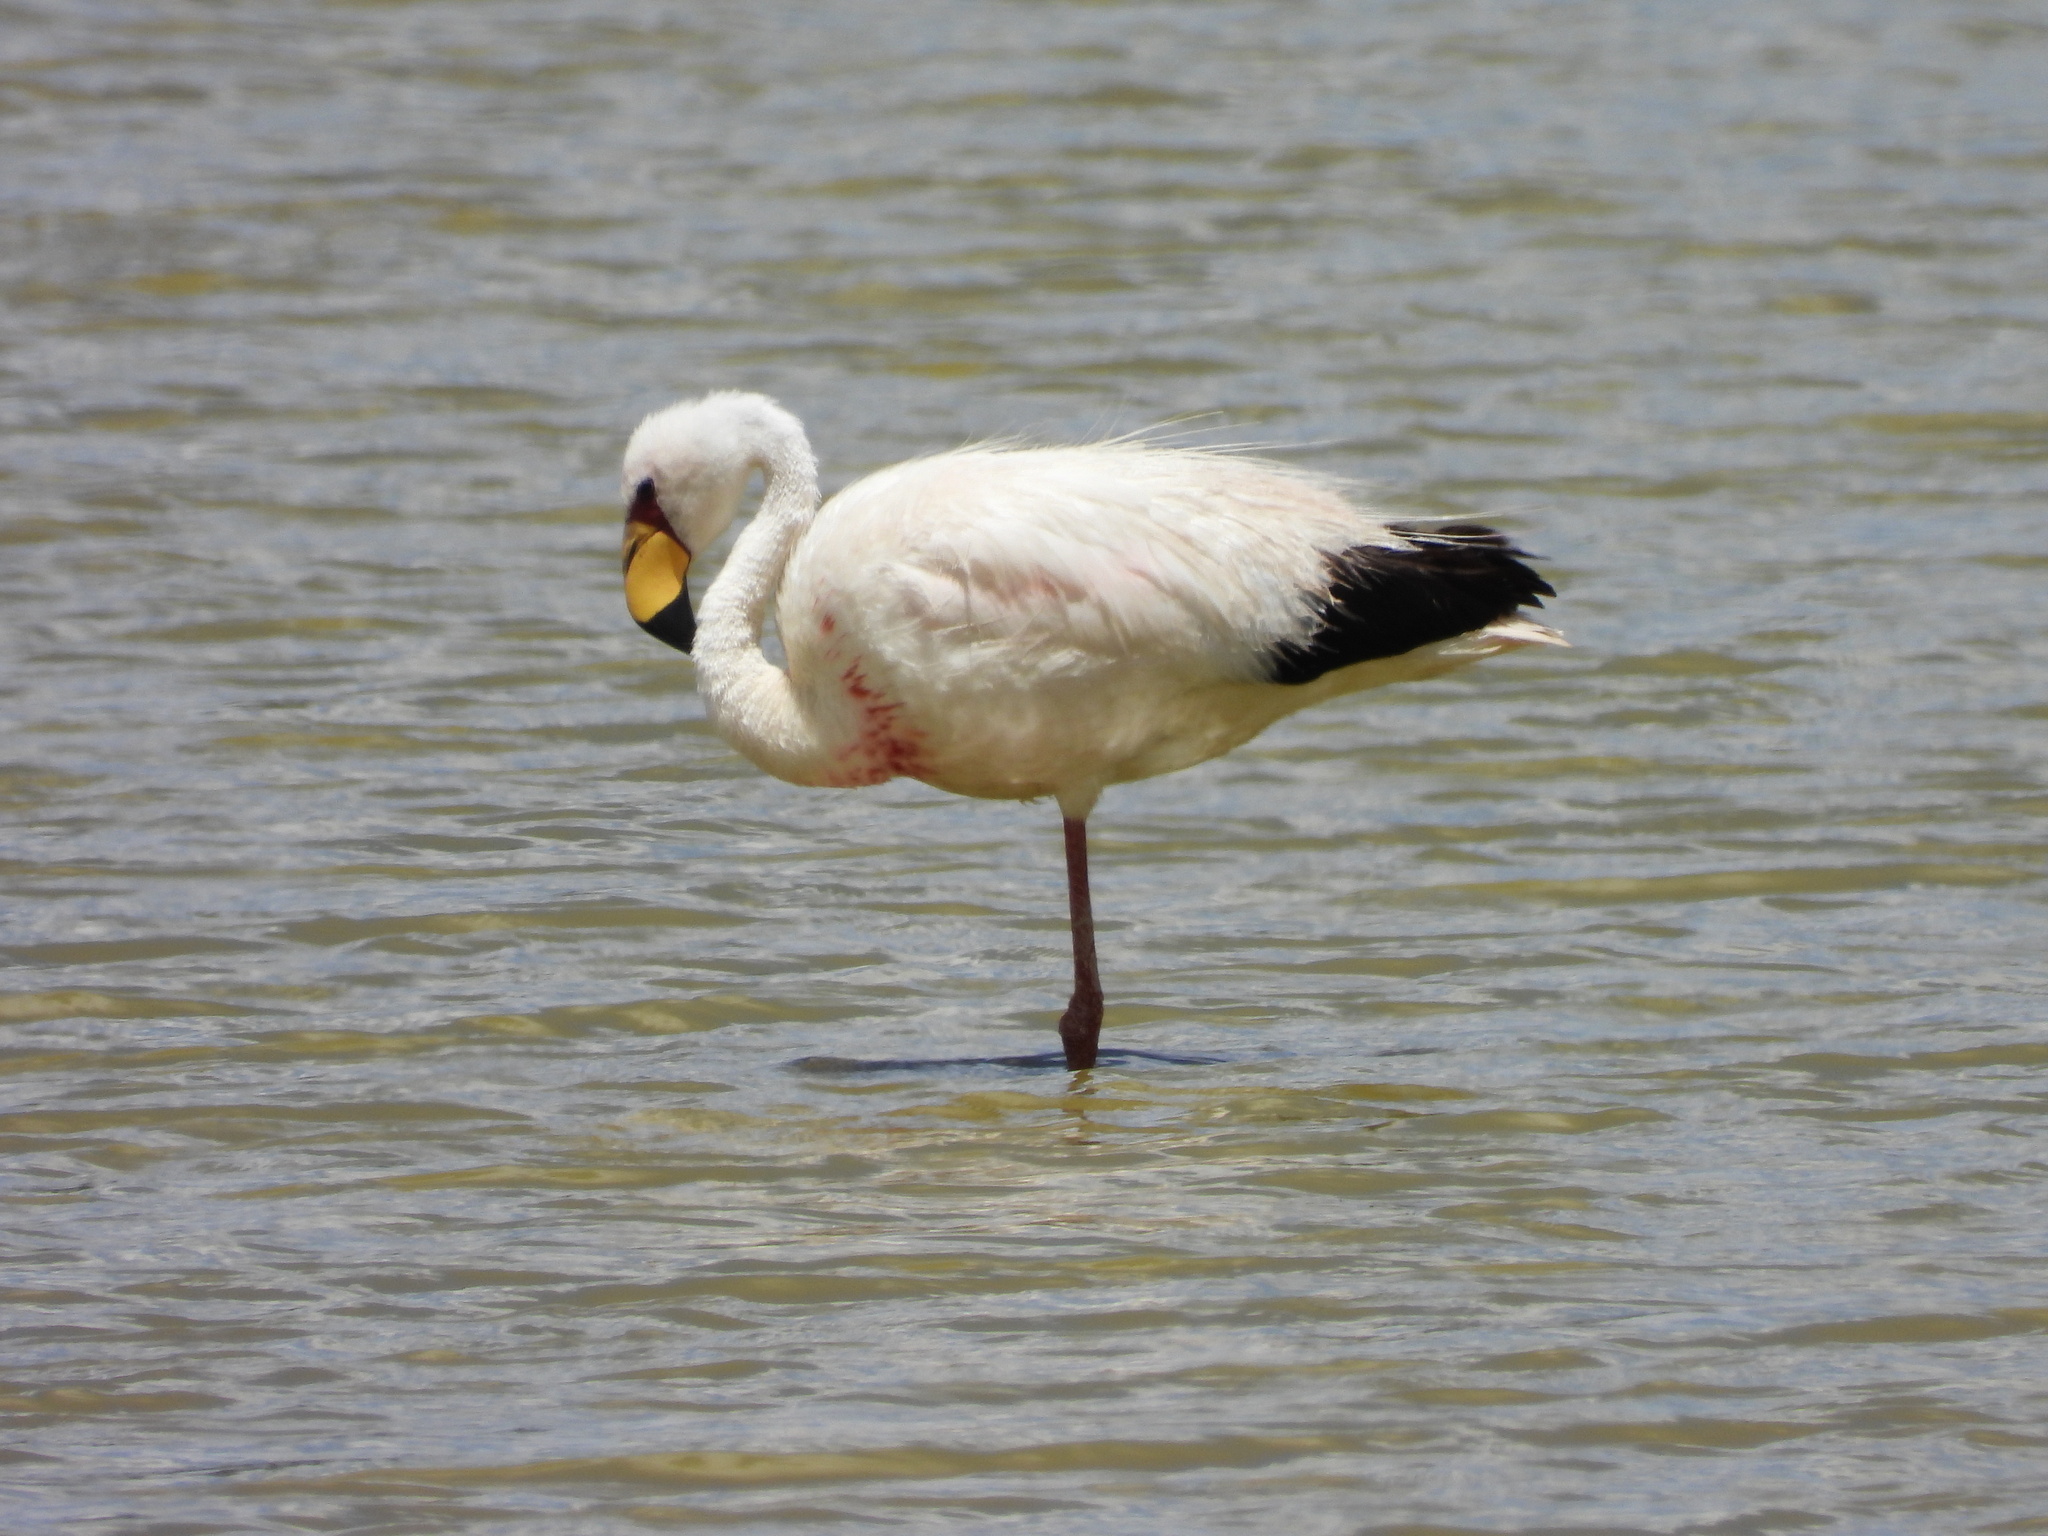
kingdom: Animalia
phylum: Chordata
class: Aves
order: Phoenicopteriformes
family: Phoenicopteridae
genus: Phoenicoparrus
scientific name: Phoenicoparrus jamesi
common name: James's flamingo
